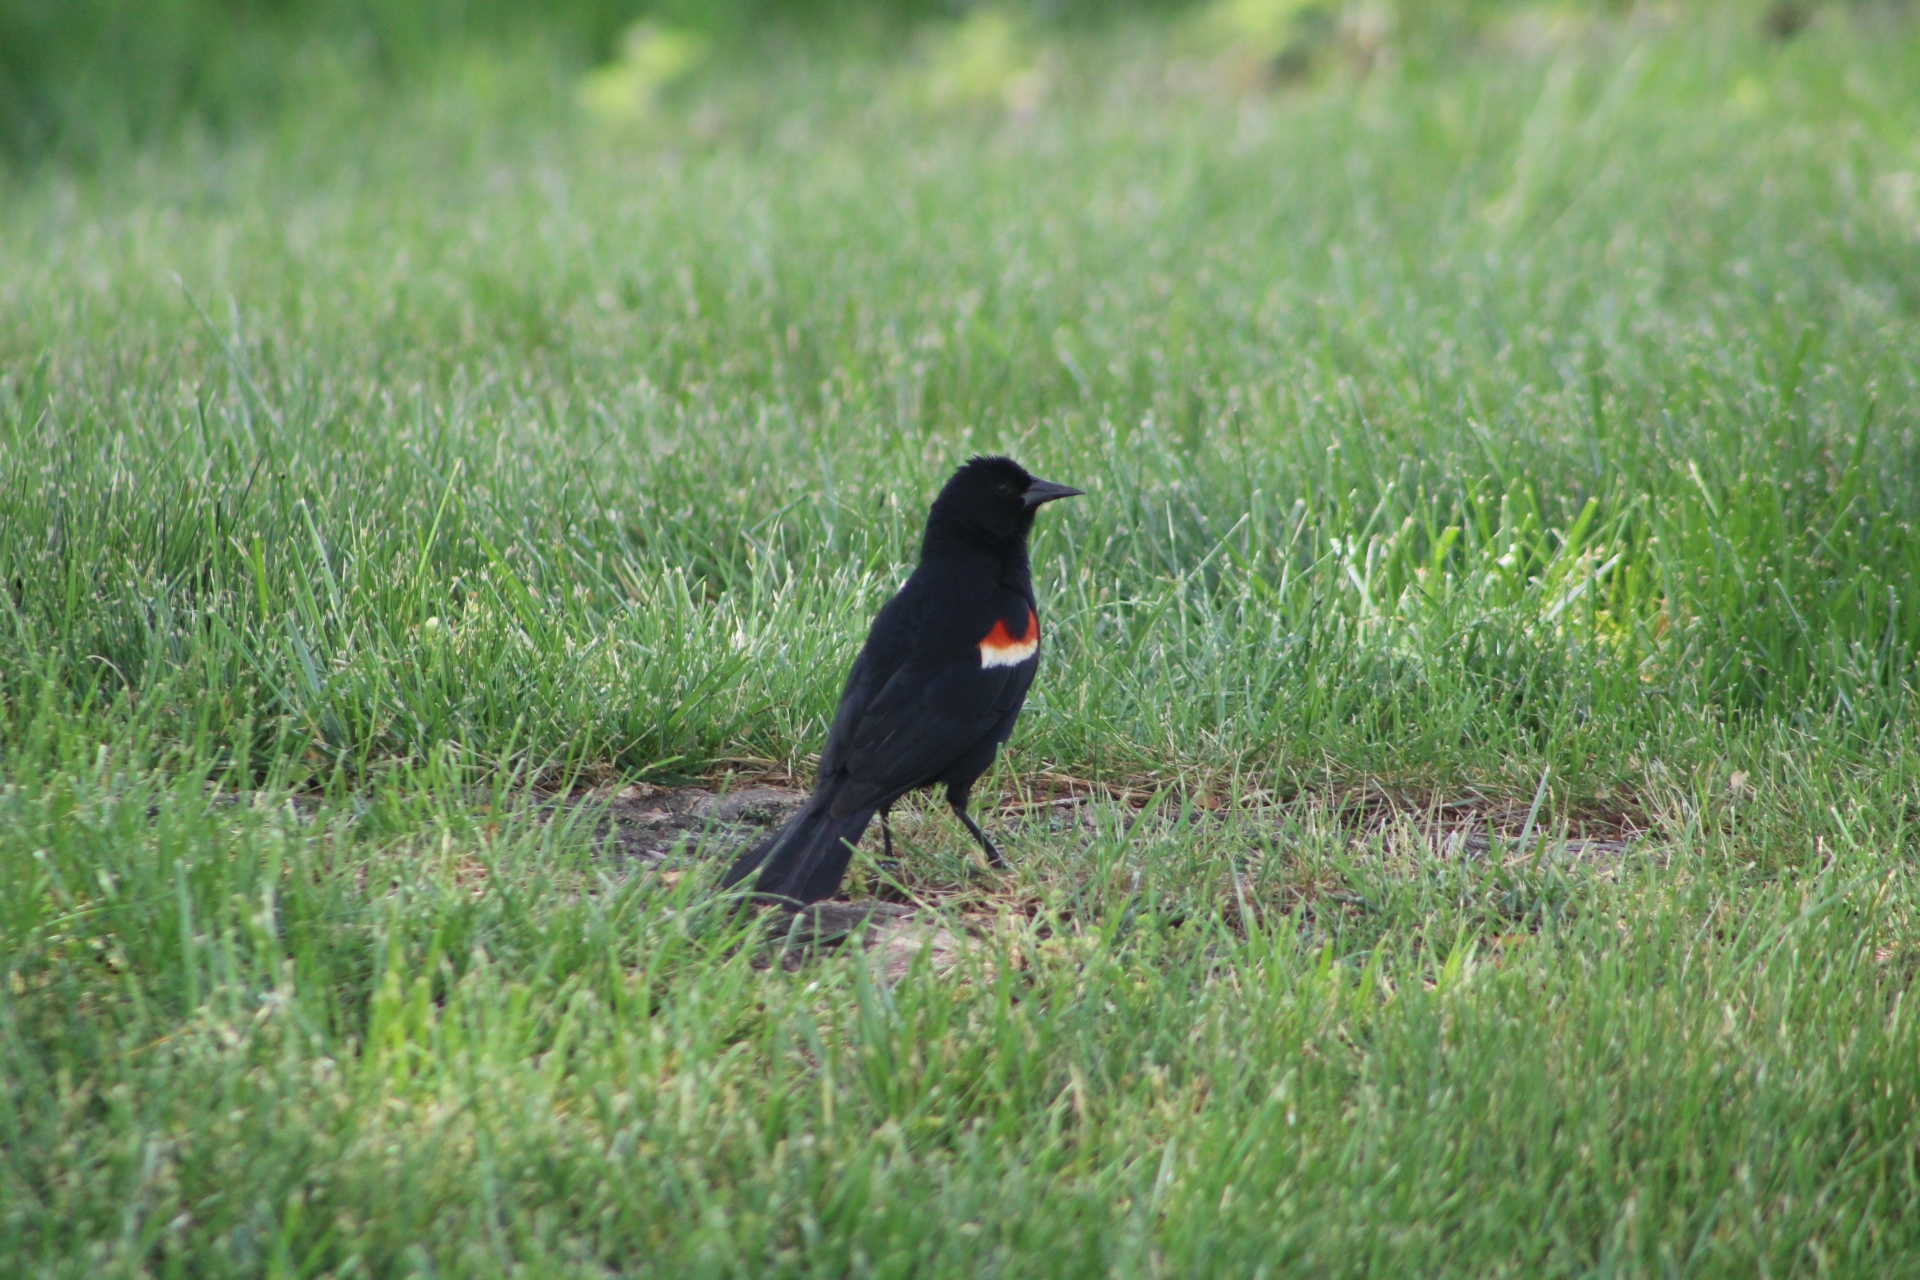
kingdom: Animalia
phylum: Chordata
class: Aves
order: Passeriformes
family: Icteridae
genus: Agelaius
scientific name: Agelaius phoeniceus
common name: Red-winged blackbird
